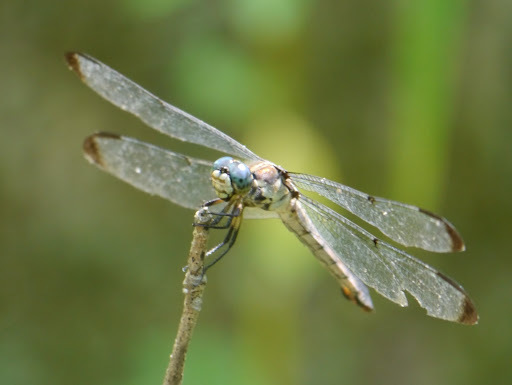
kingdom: Animalia
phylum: Arthropoda
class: Insecta
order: Odonata
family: Libellulidae
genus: Libellula
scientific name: Libellula vibrans
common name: Great blue skimmer
